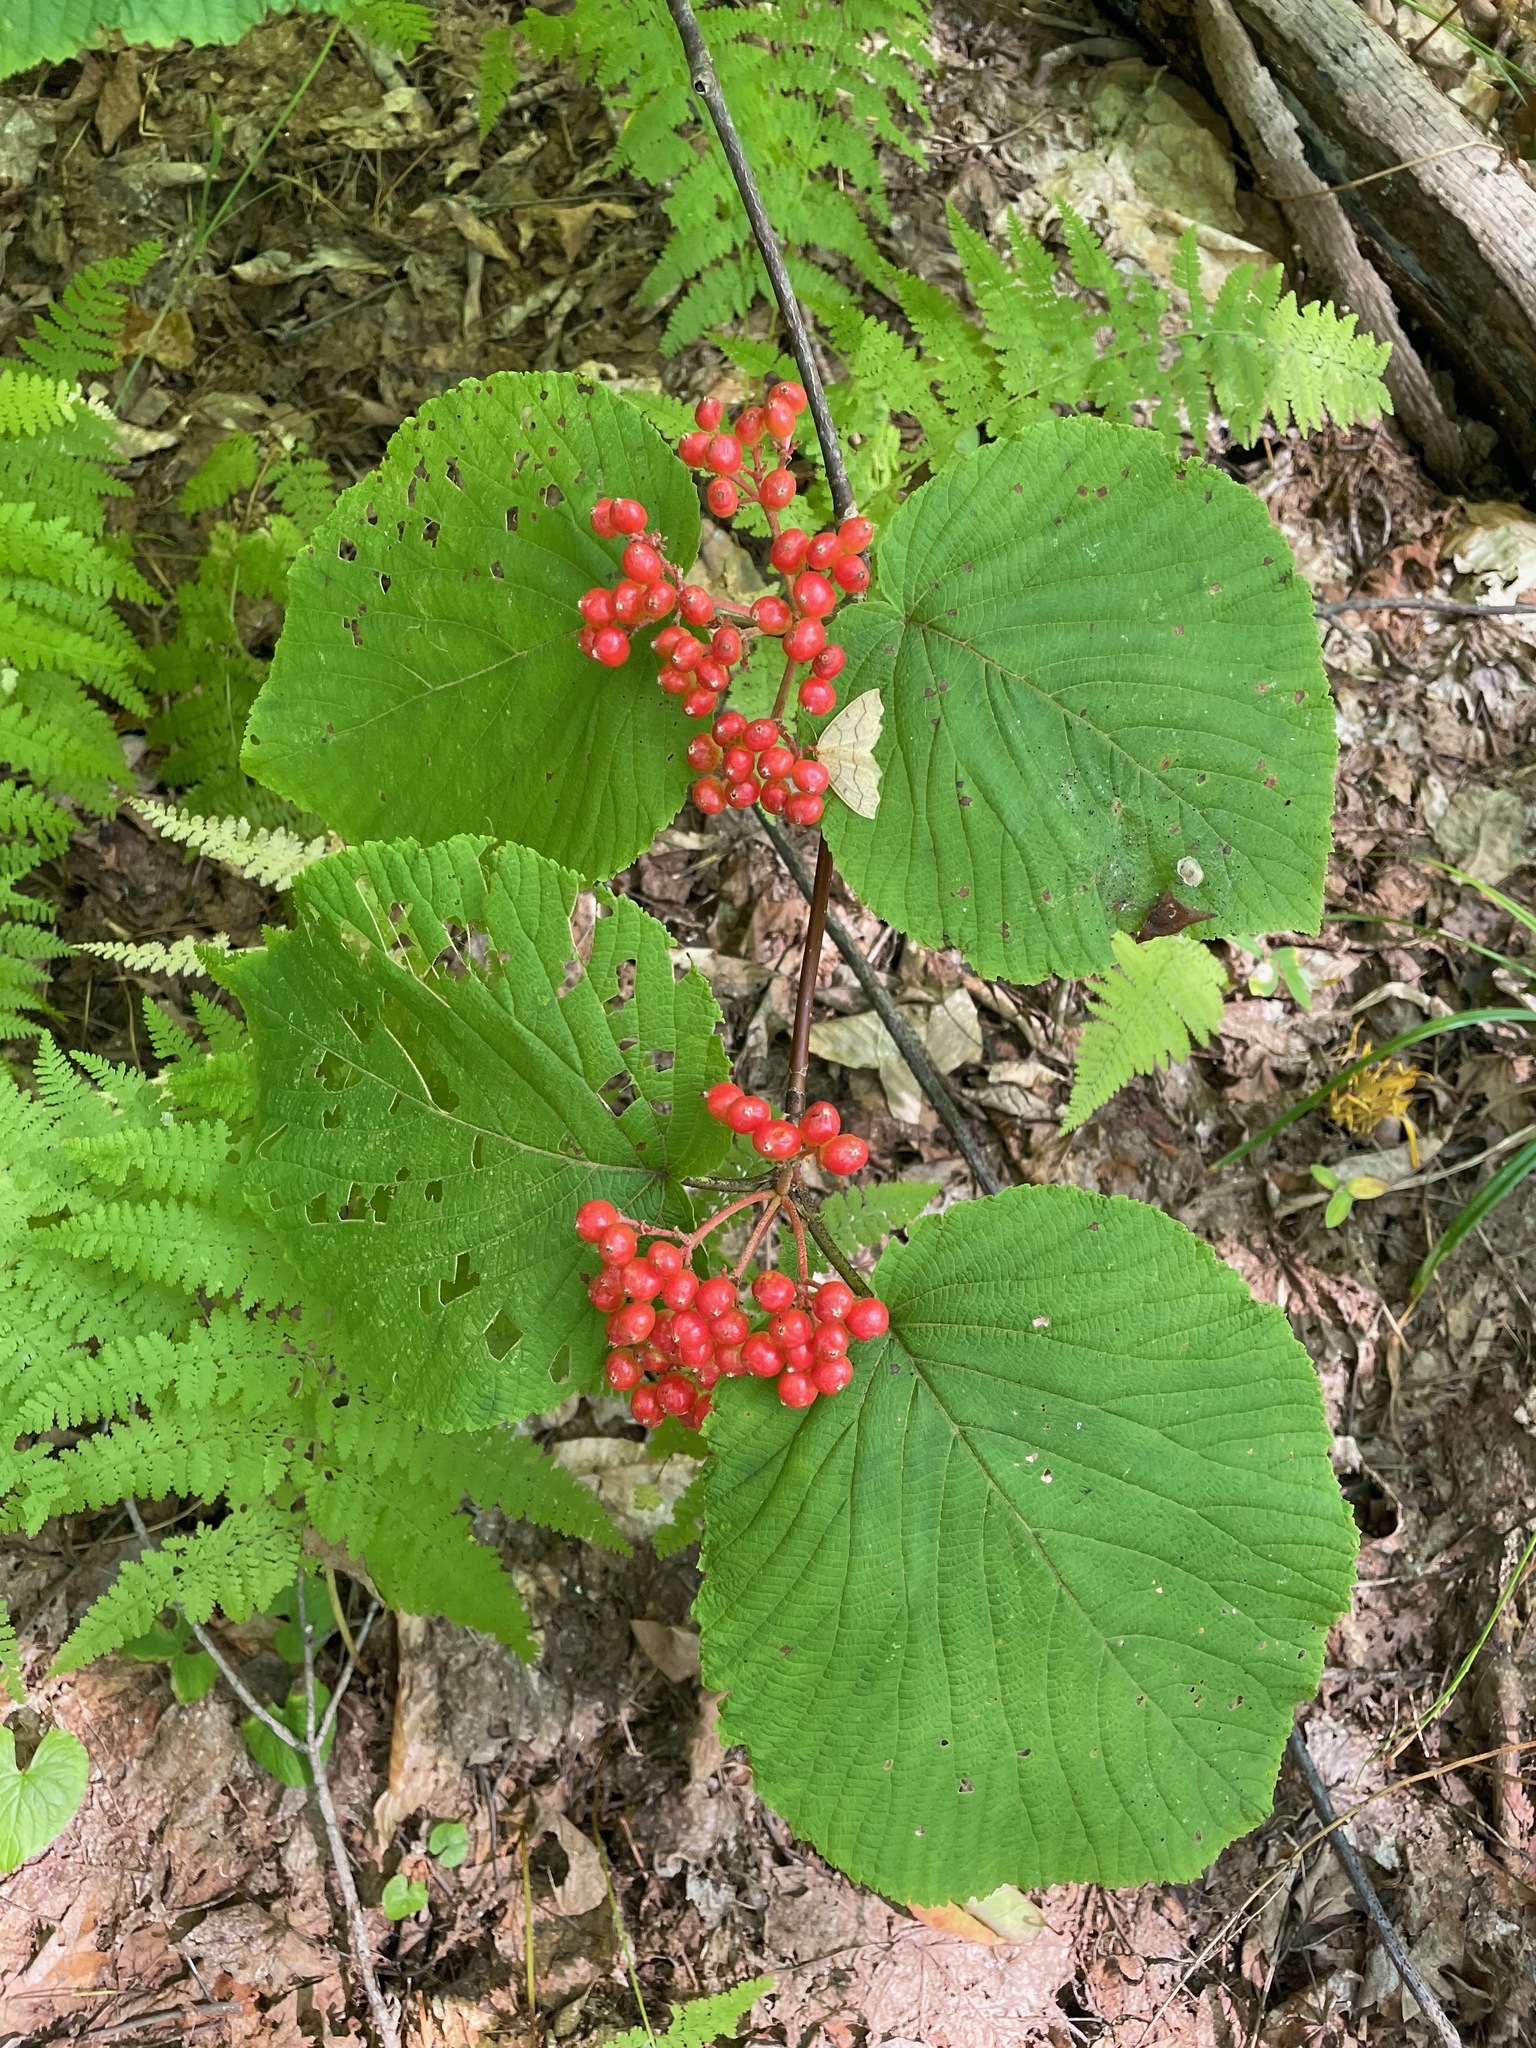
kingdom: Plantae
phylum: Tracheophyta
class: Magnoliopsida
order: Dipsacales
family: Viburnaceae
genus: Viburnum
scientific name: Viburnum lantanoides
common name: Hobblebush
